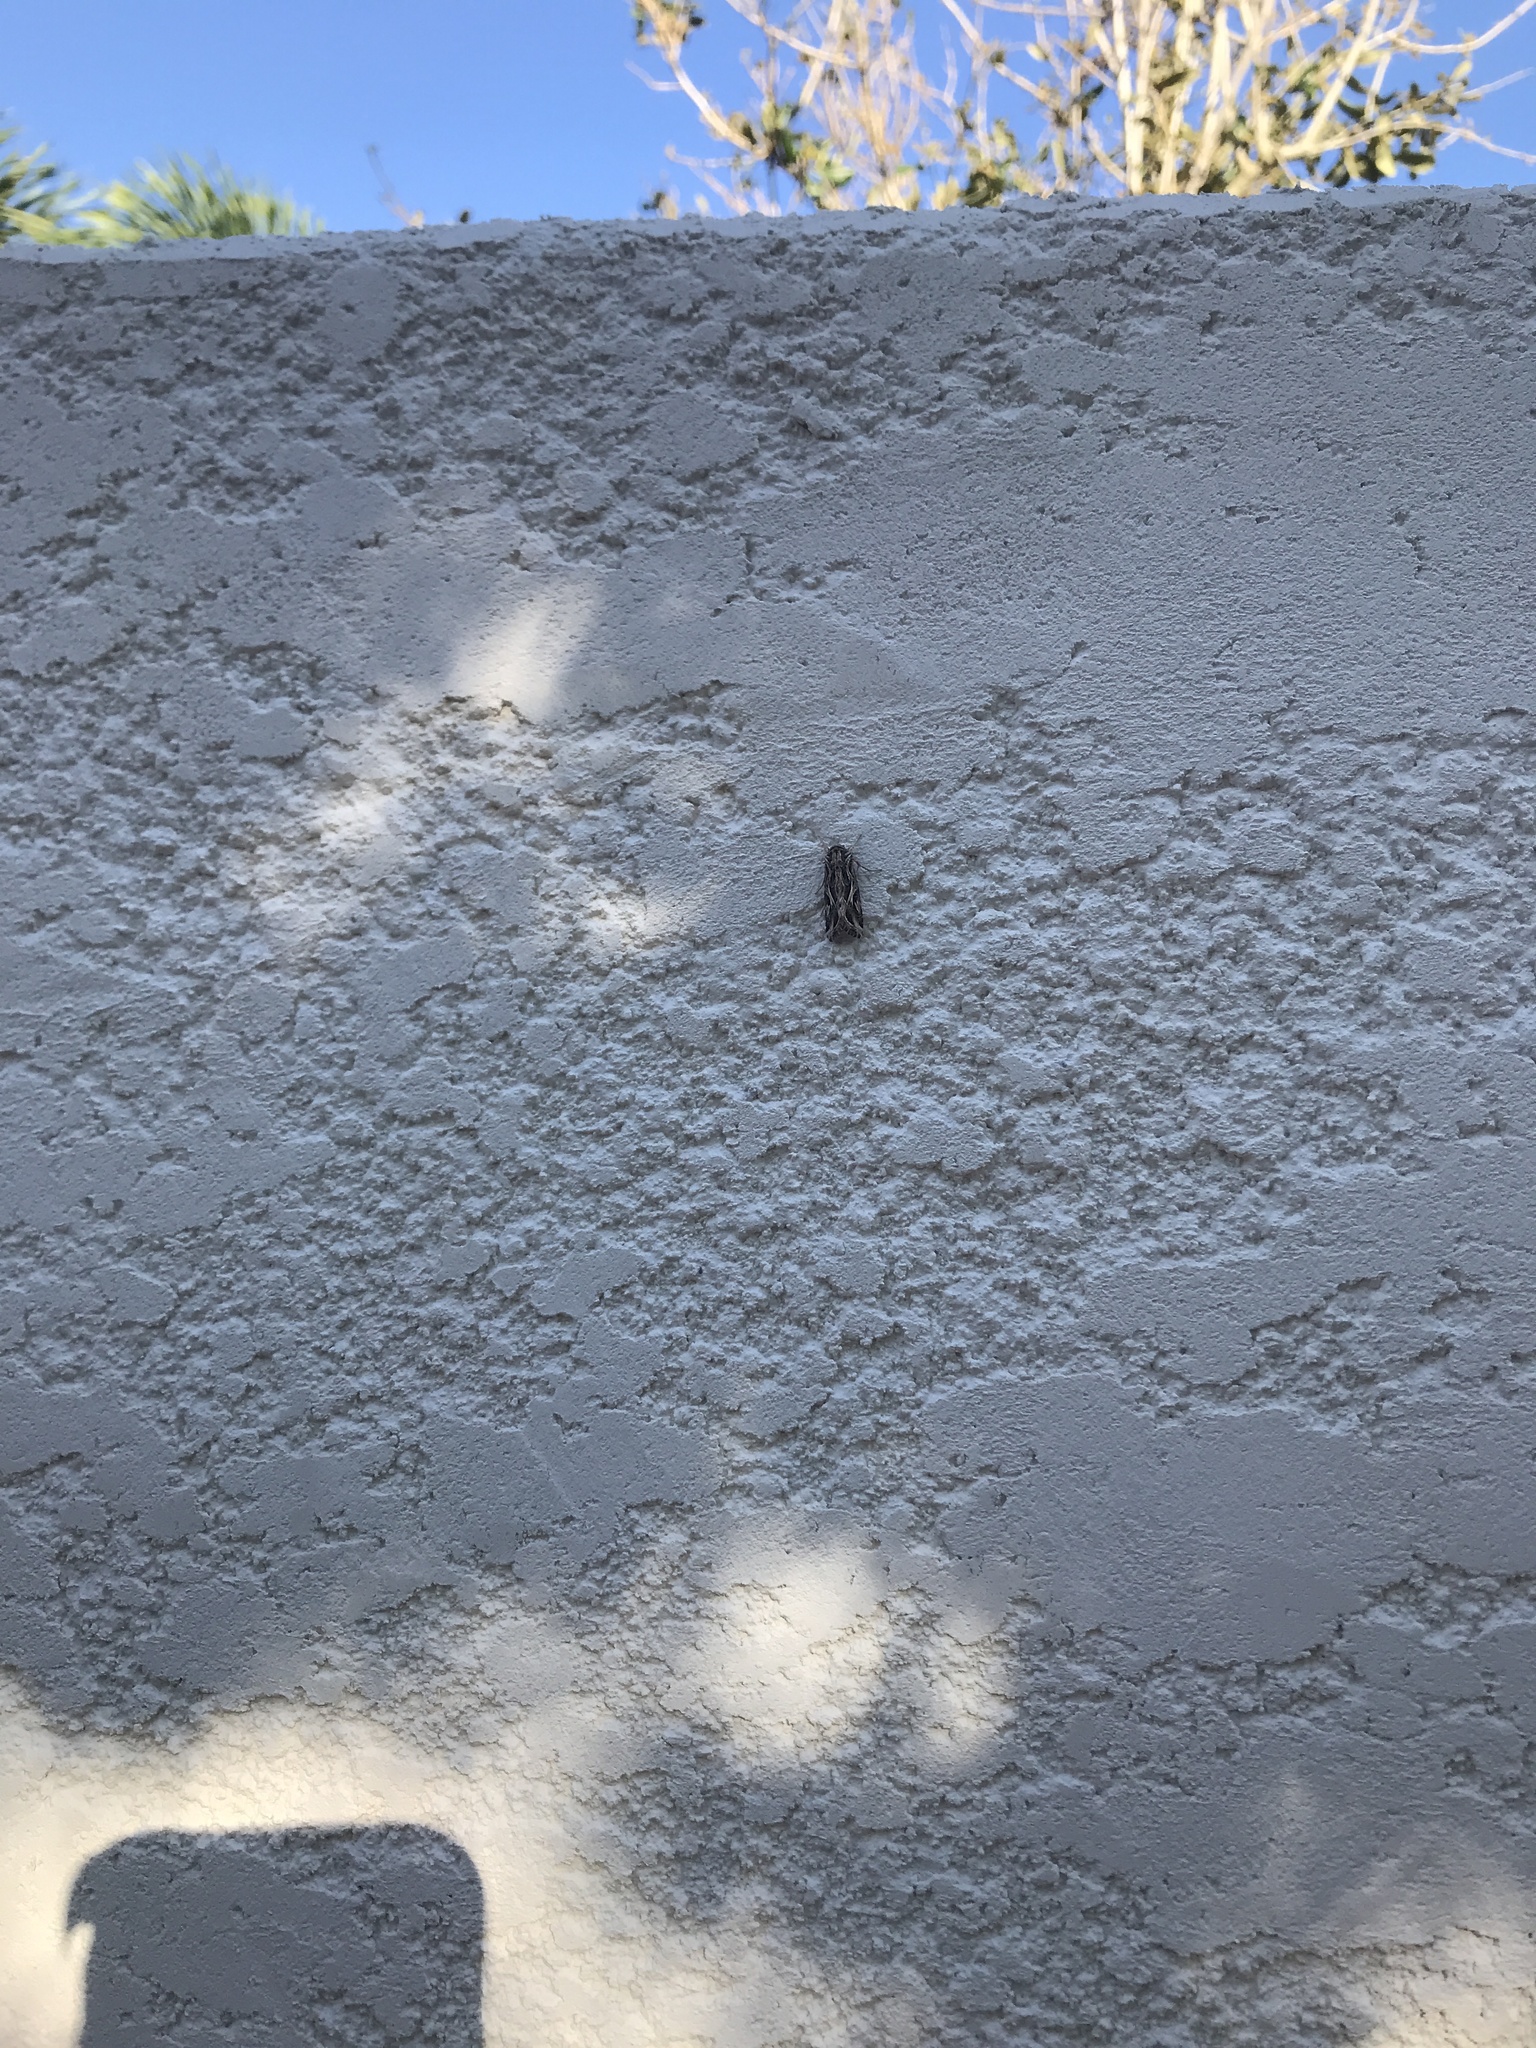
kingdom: Animalia
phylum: Arthropoda
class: Insecta
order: Lepidoptera
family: Noctuidae
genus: Spodoptera
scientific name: Spodoptera pulchella
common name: Caribbean armyworm moth
